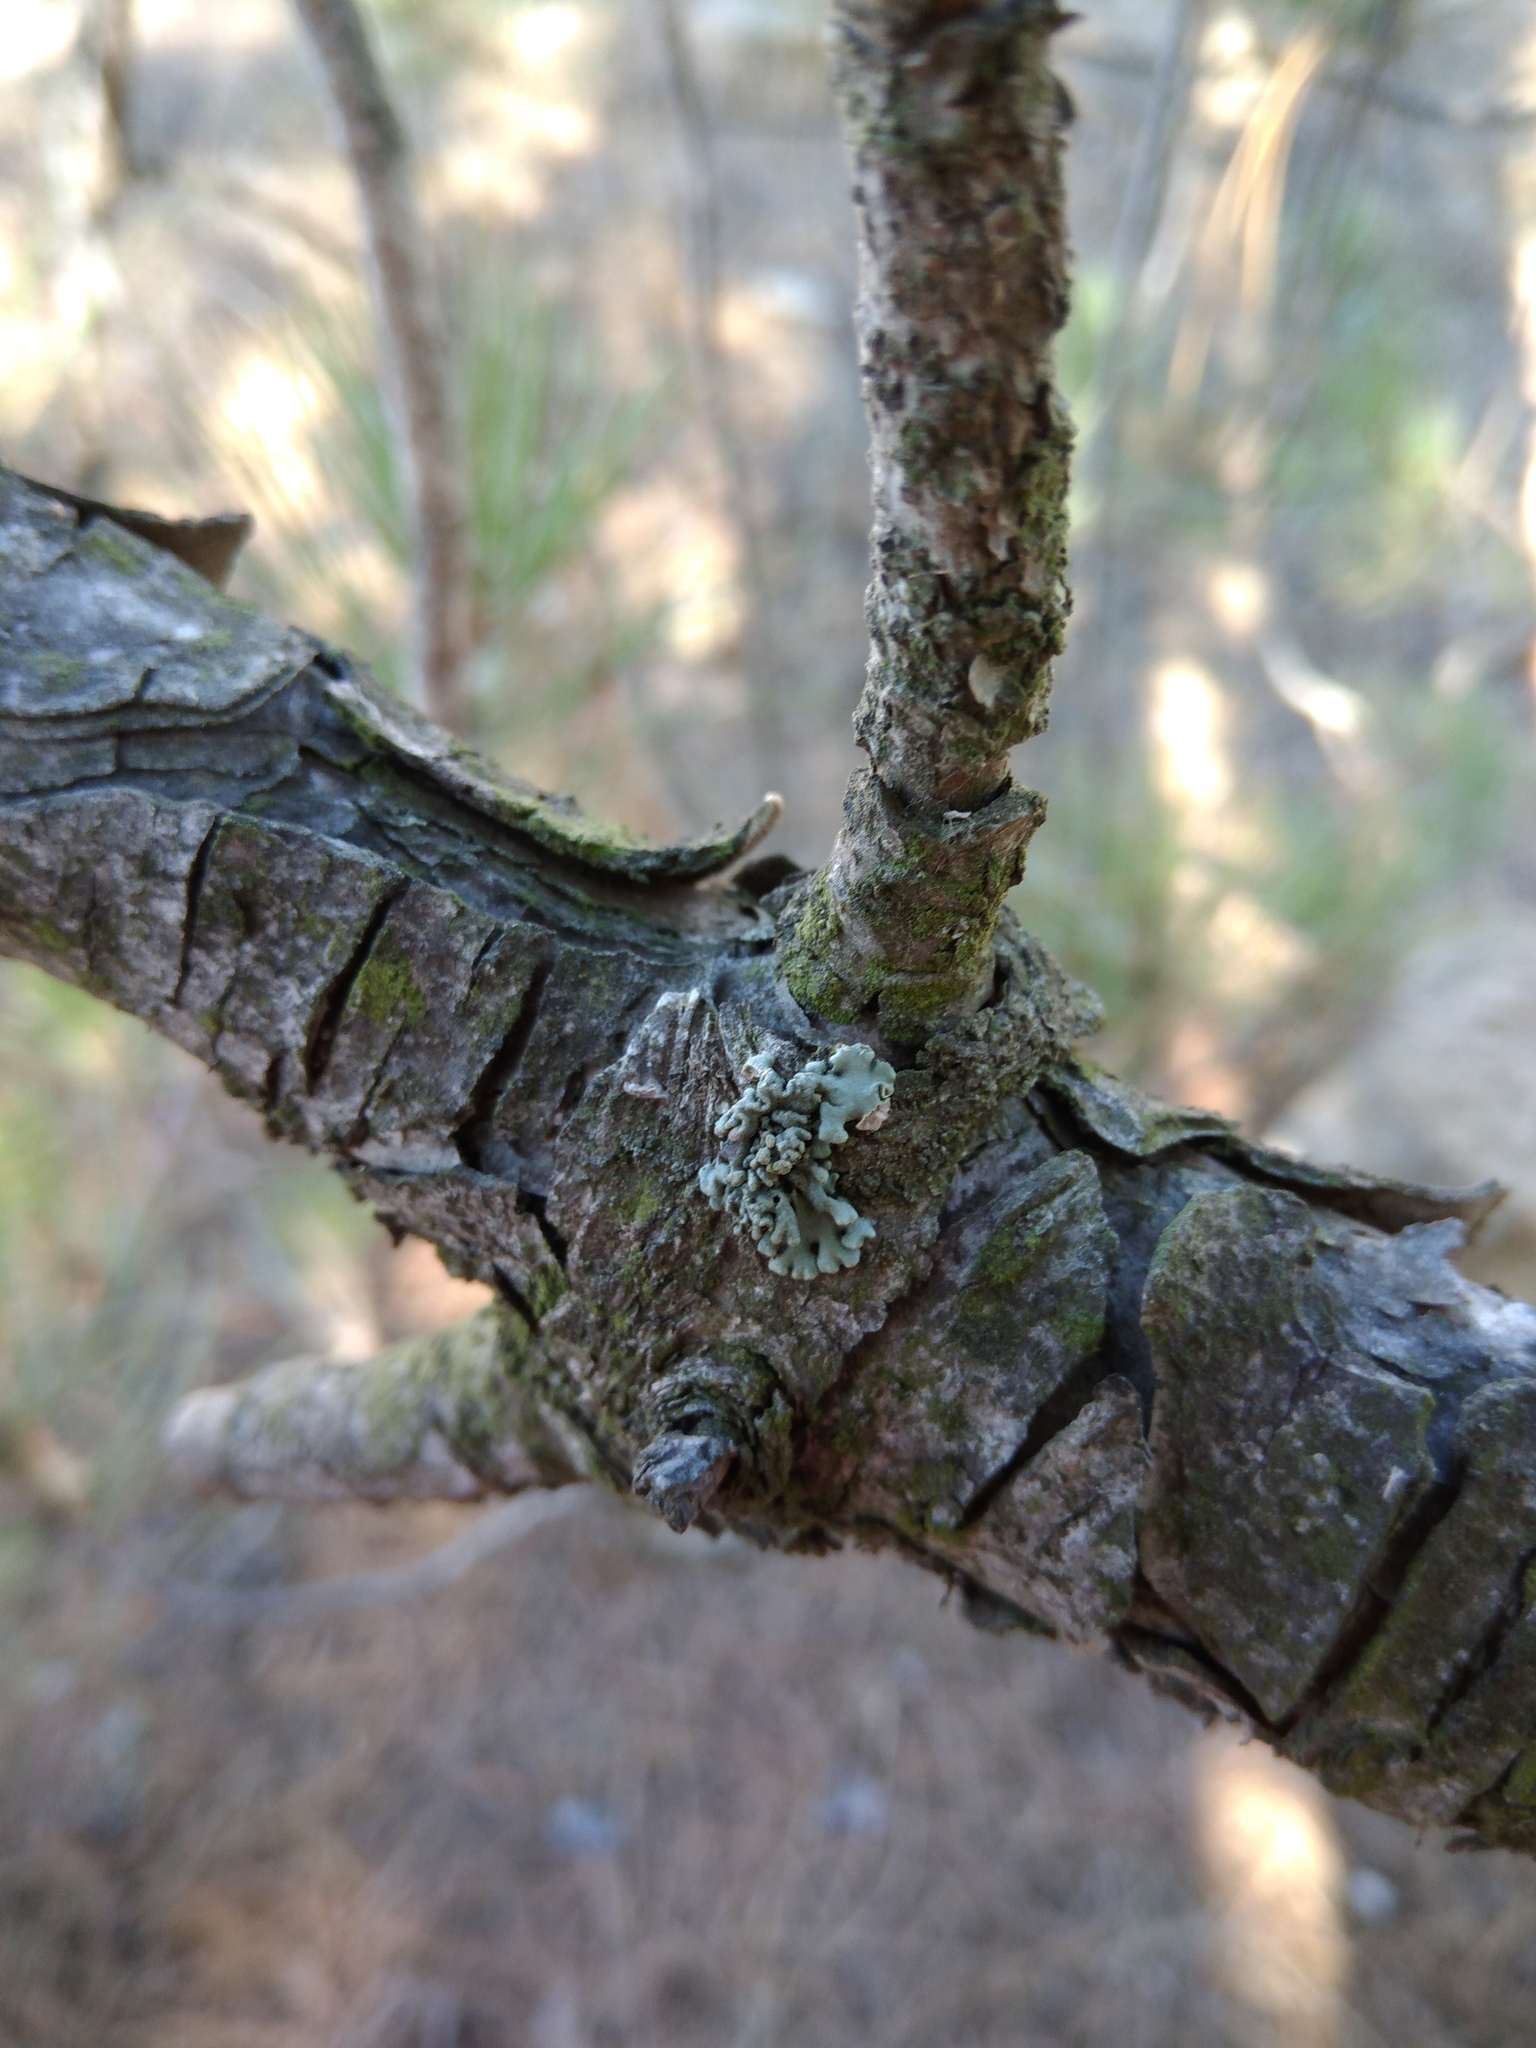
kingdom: Fungi
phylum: Ascomycota
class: Lecanoromycetes
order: Lecanorales
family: Parmeliaceae
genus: Hypogymnia
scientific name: Hypogymnia physodes
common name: Dark crottle
